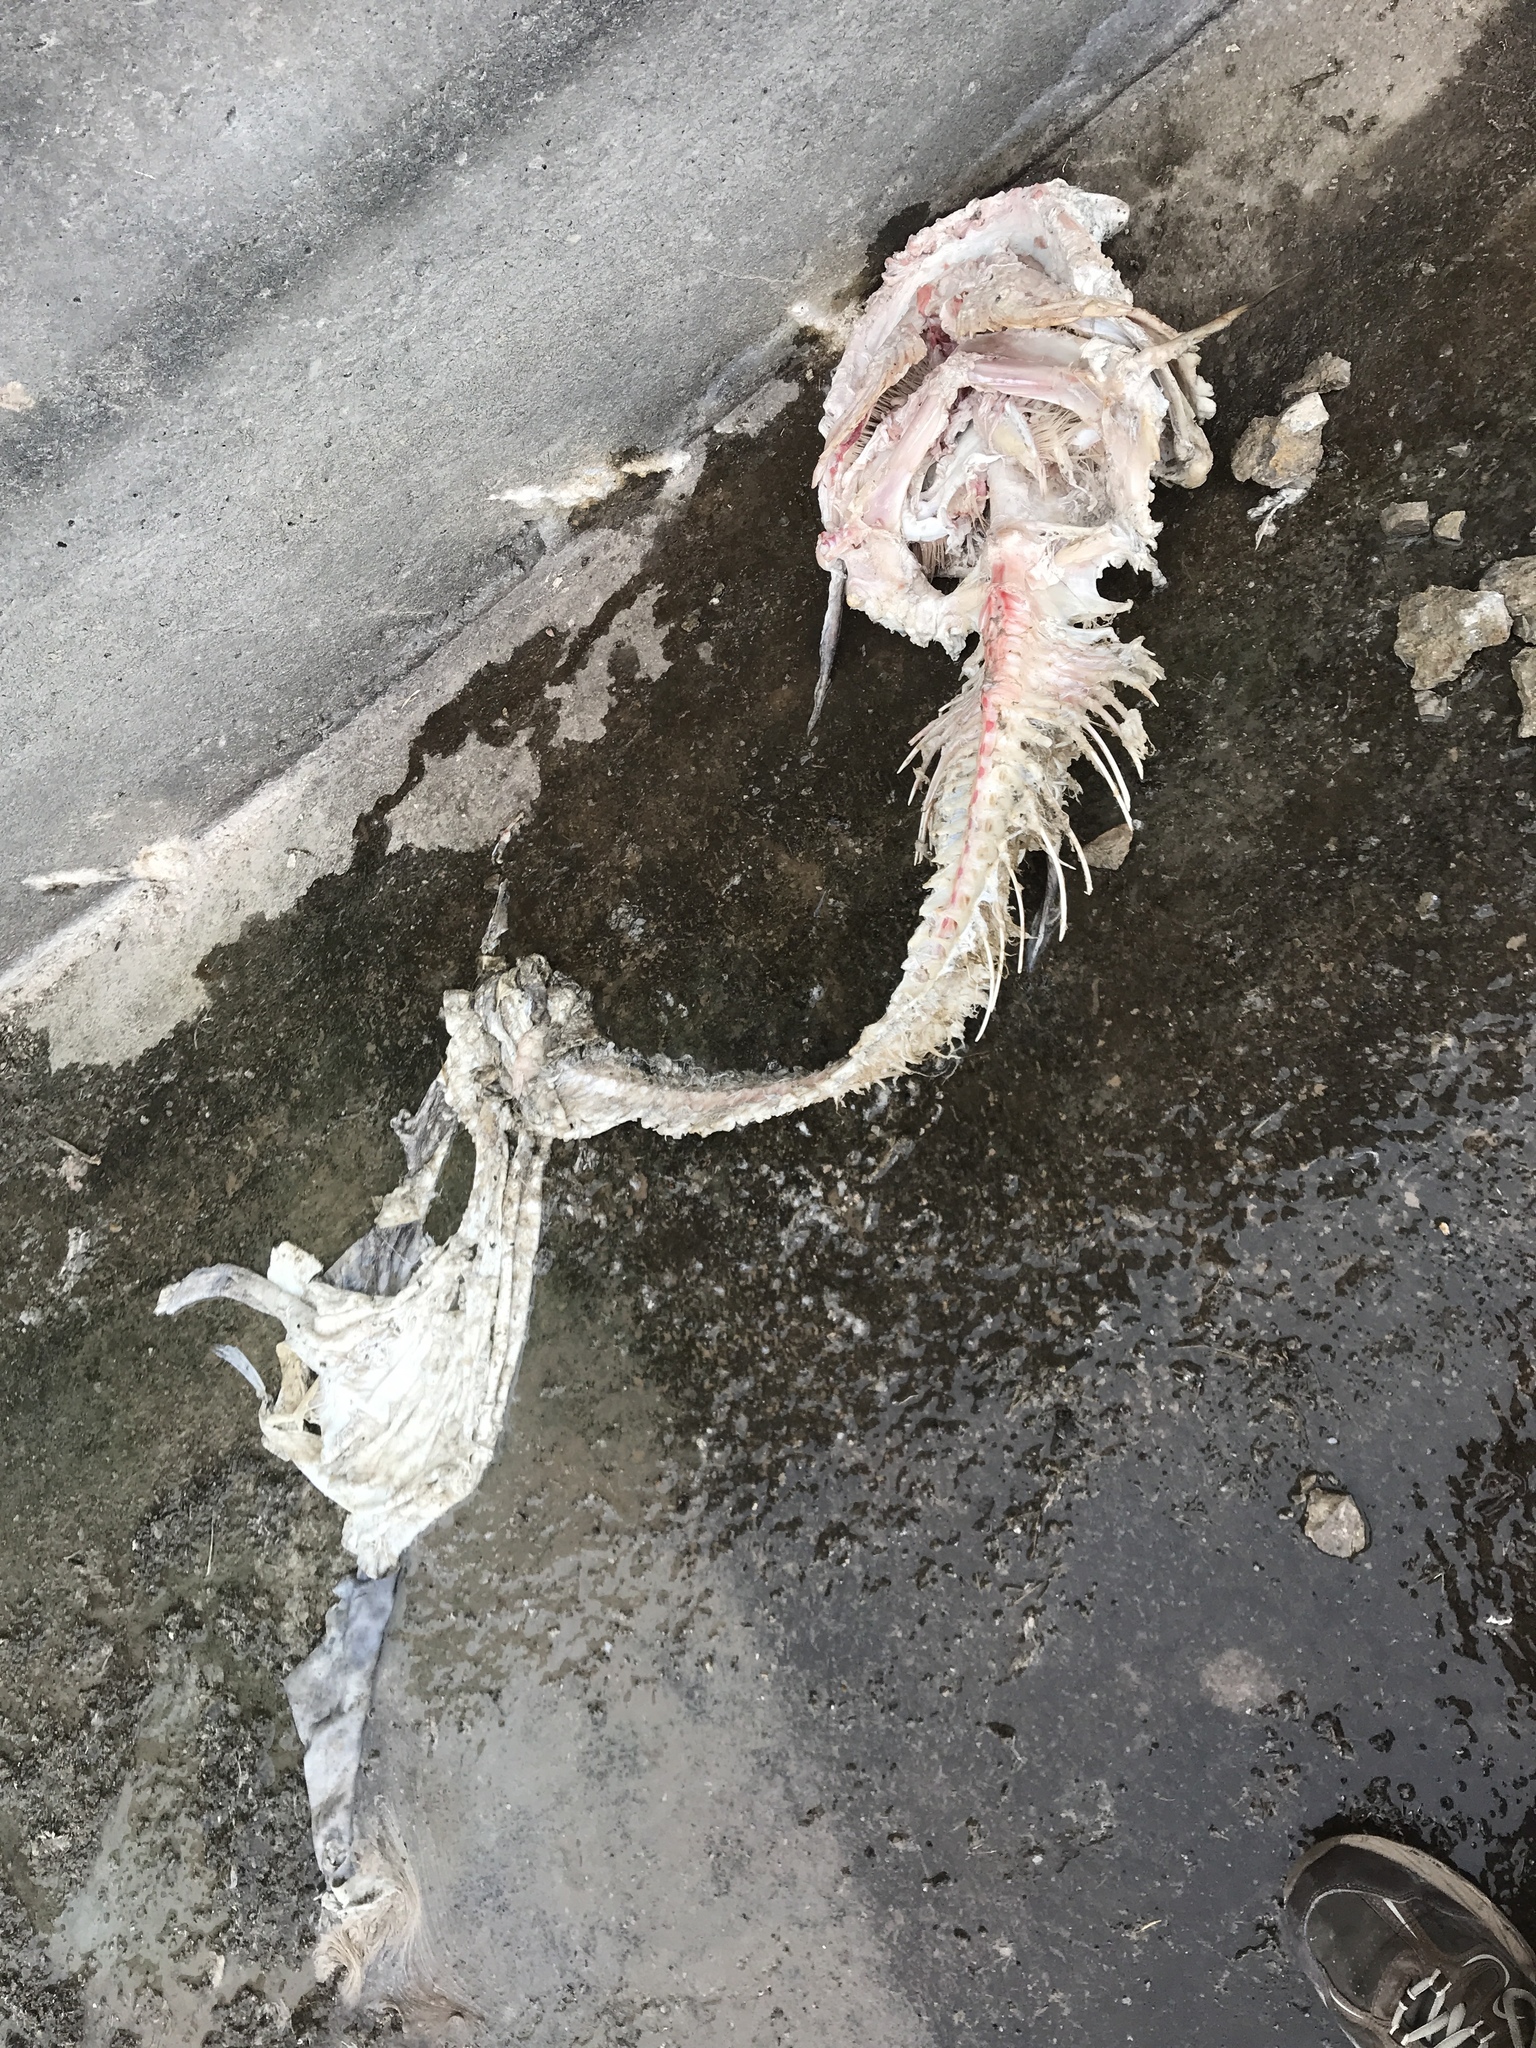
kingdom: Animalia
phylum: Chordata
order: Siluriformes
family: Ictaluridae
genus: Pylodictis
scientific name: Pylodictis olivaris
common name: Flathead catfish
